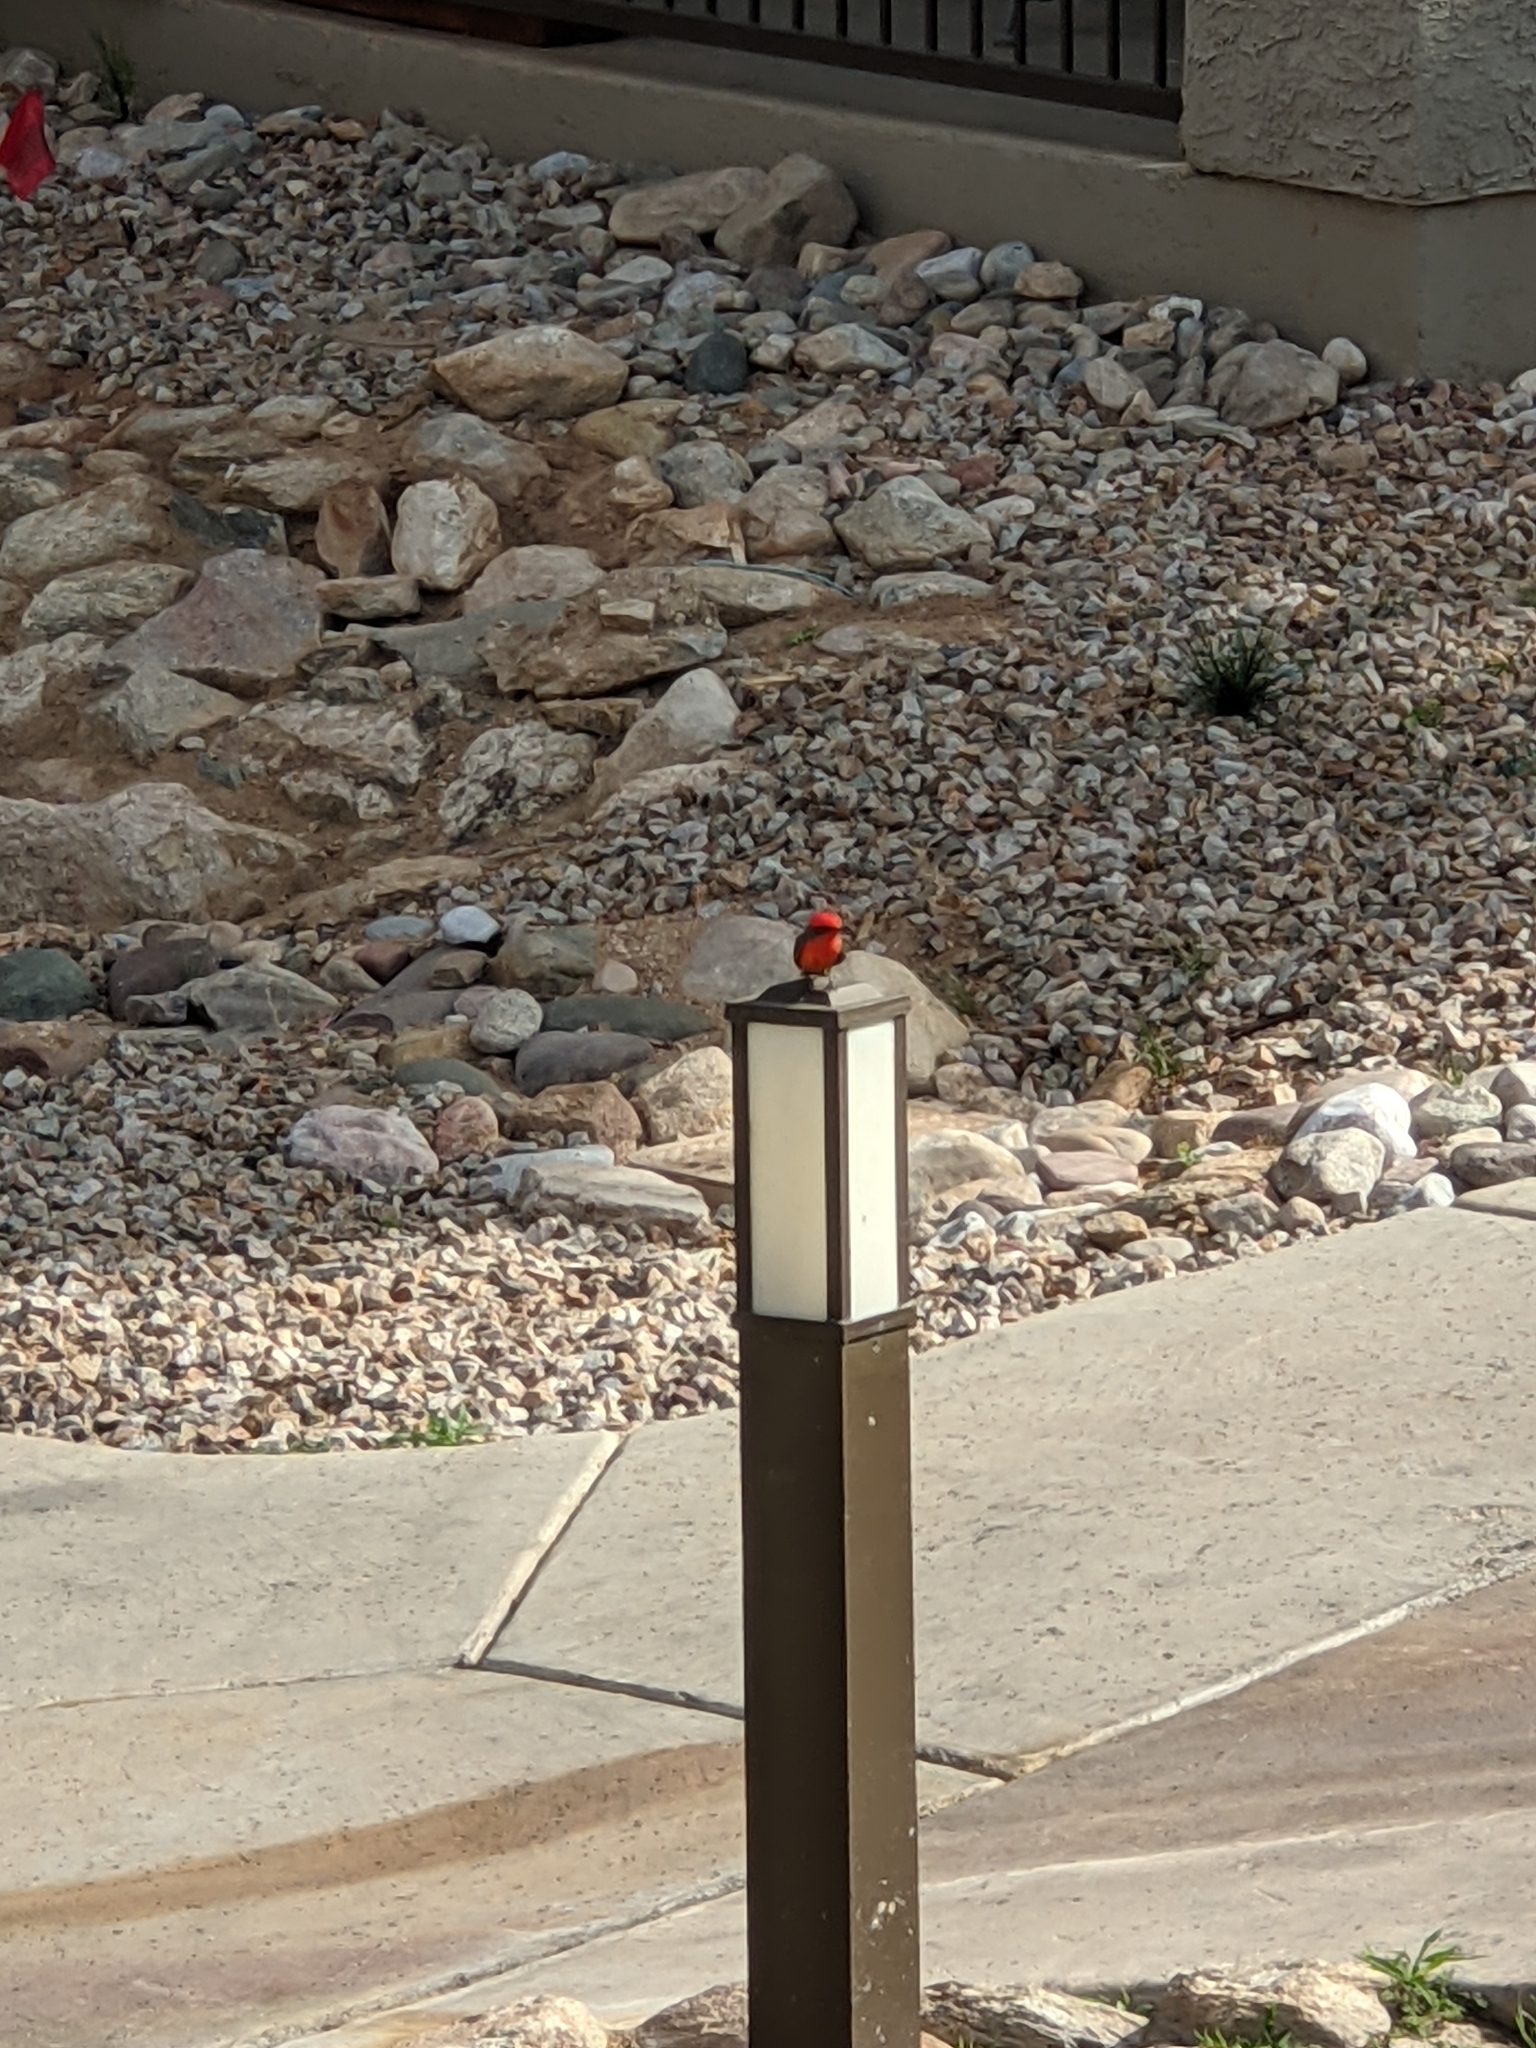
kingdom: Animalia
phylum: Chordata
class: Aves
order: Passeriformes
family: Tyrannidae
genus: Pyrocephalus
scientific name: Pyrocephalus rubinus
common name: Vermilion flycatcher
